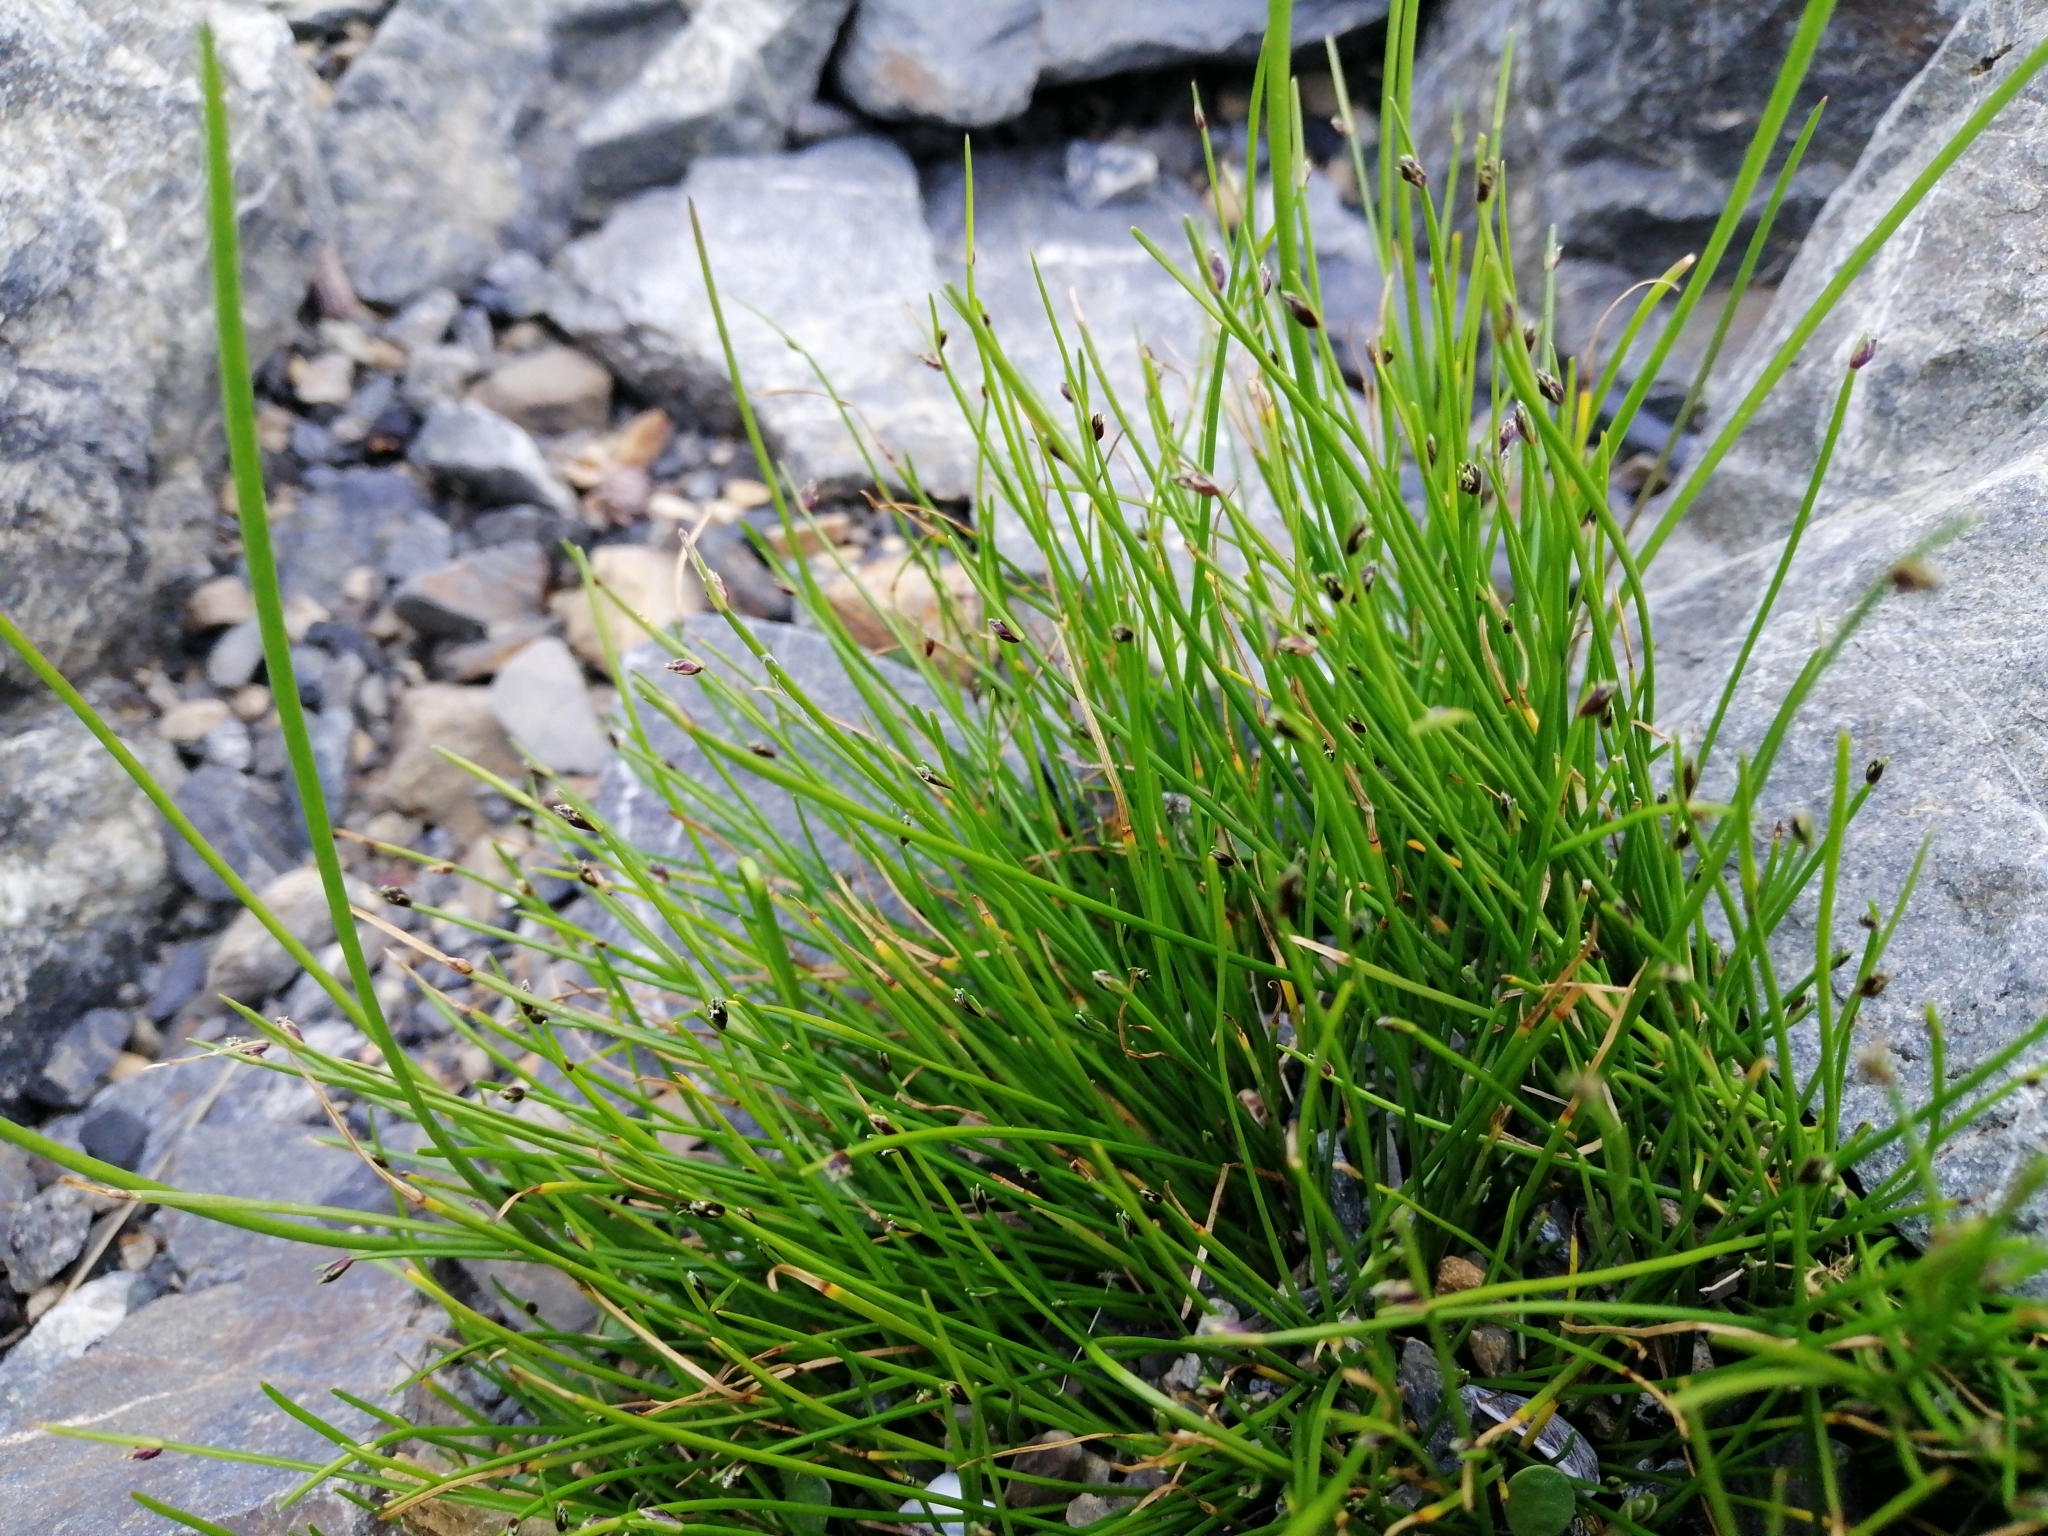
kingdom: Plantae
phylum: Tracheophyta
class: Liliopsida
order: Poales
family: Cyperaceae
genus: Isolepis
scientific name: Isolepis cernua
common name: Slender club-rush
